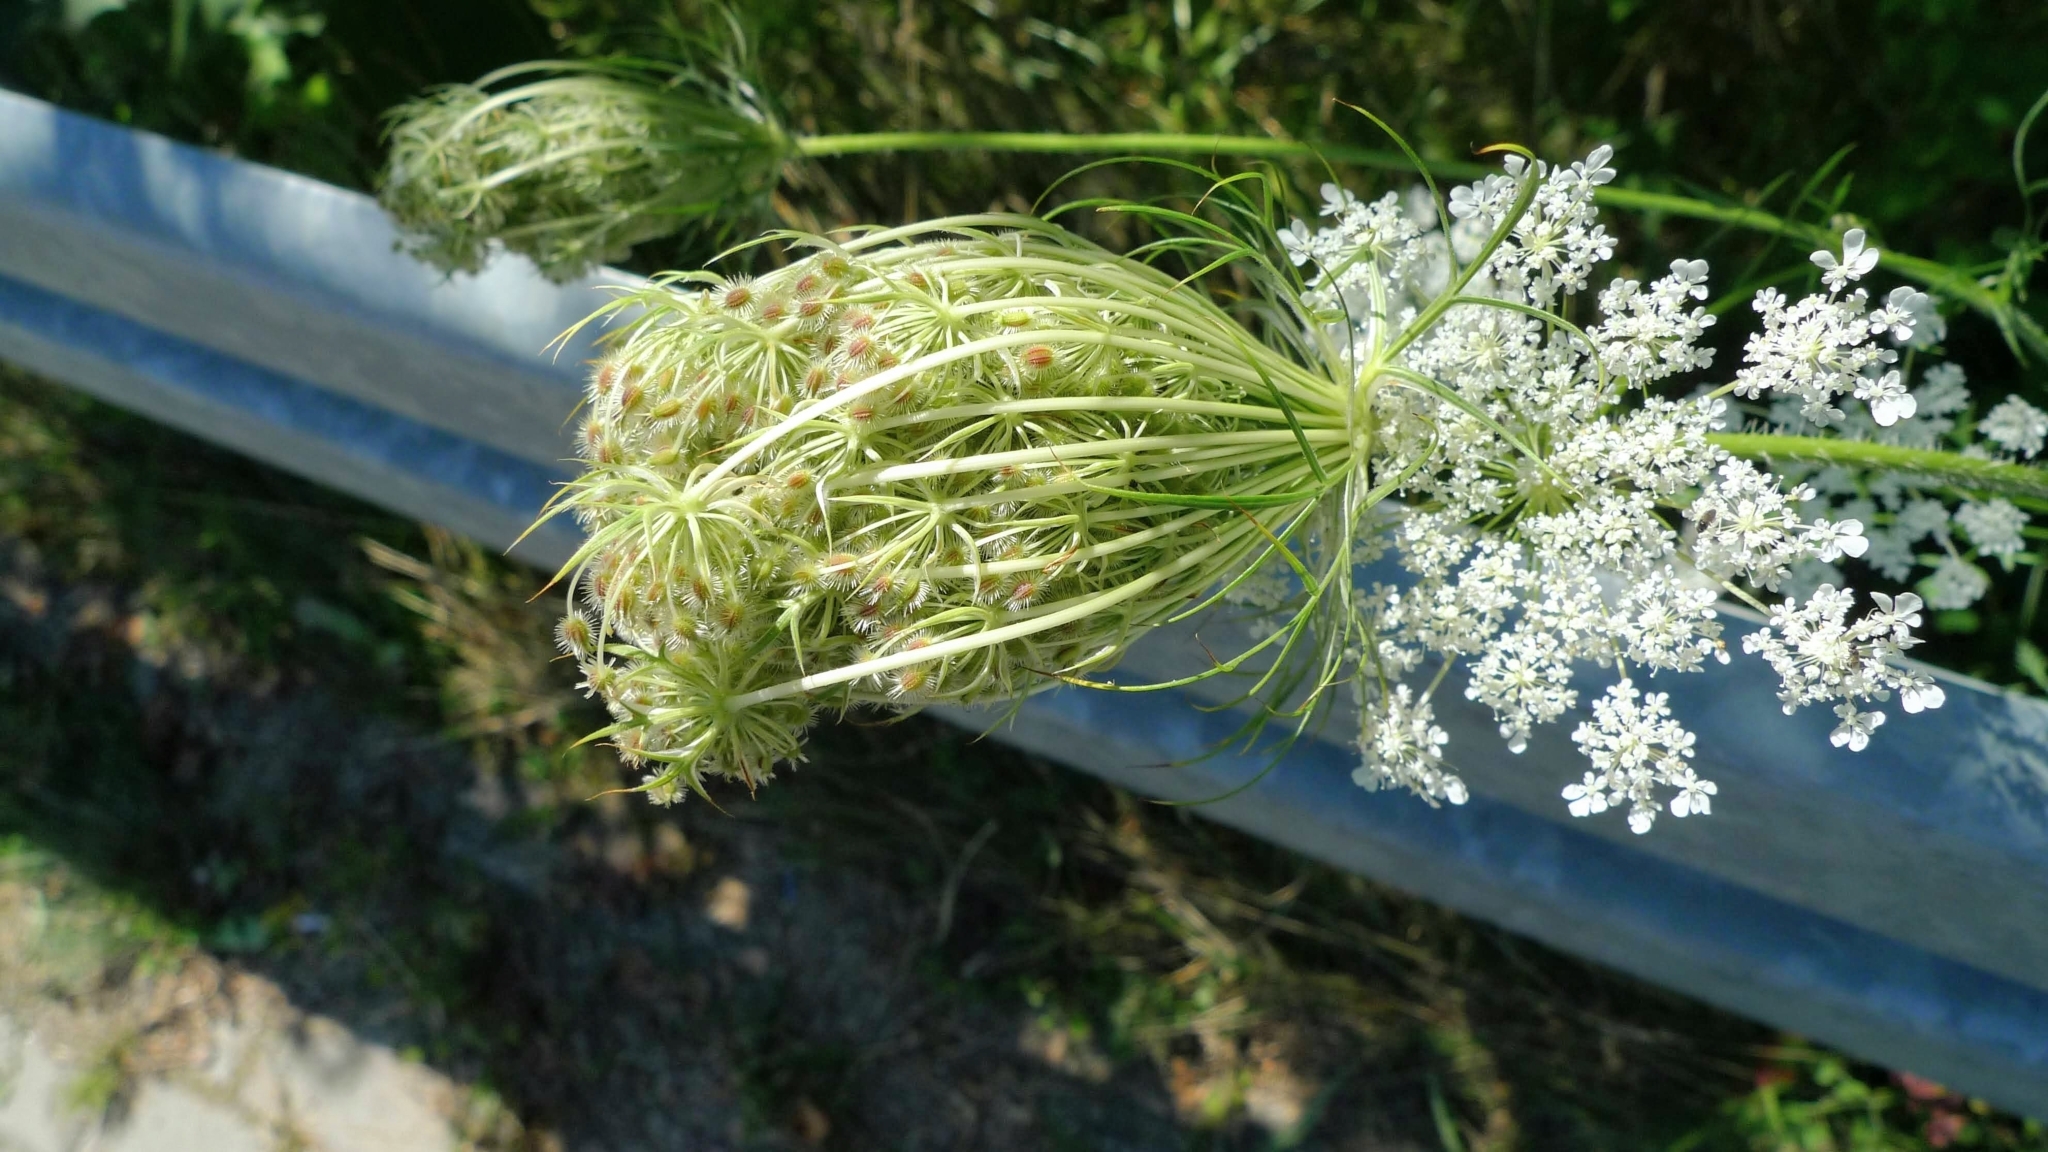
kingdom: Plantae
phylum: Tracheophyta
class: Magnoliopsida
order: Apiales
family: Apiaceae
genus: Daucus
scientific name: Daucus carota
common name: Wild carrot
